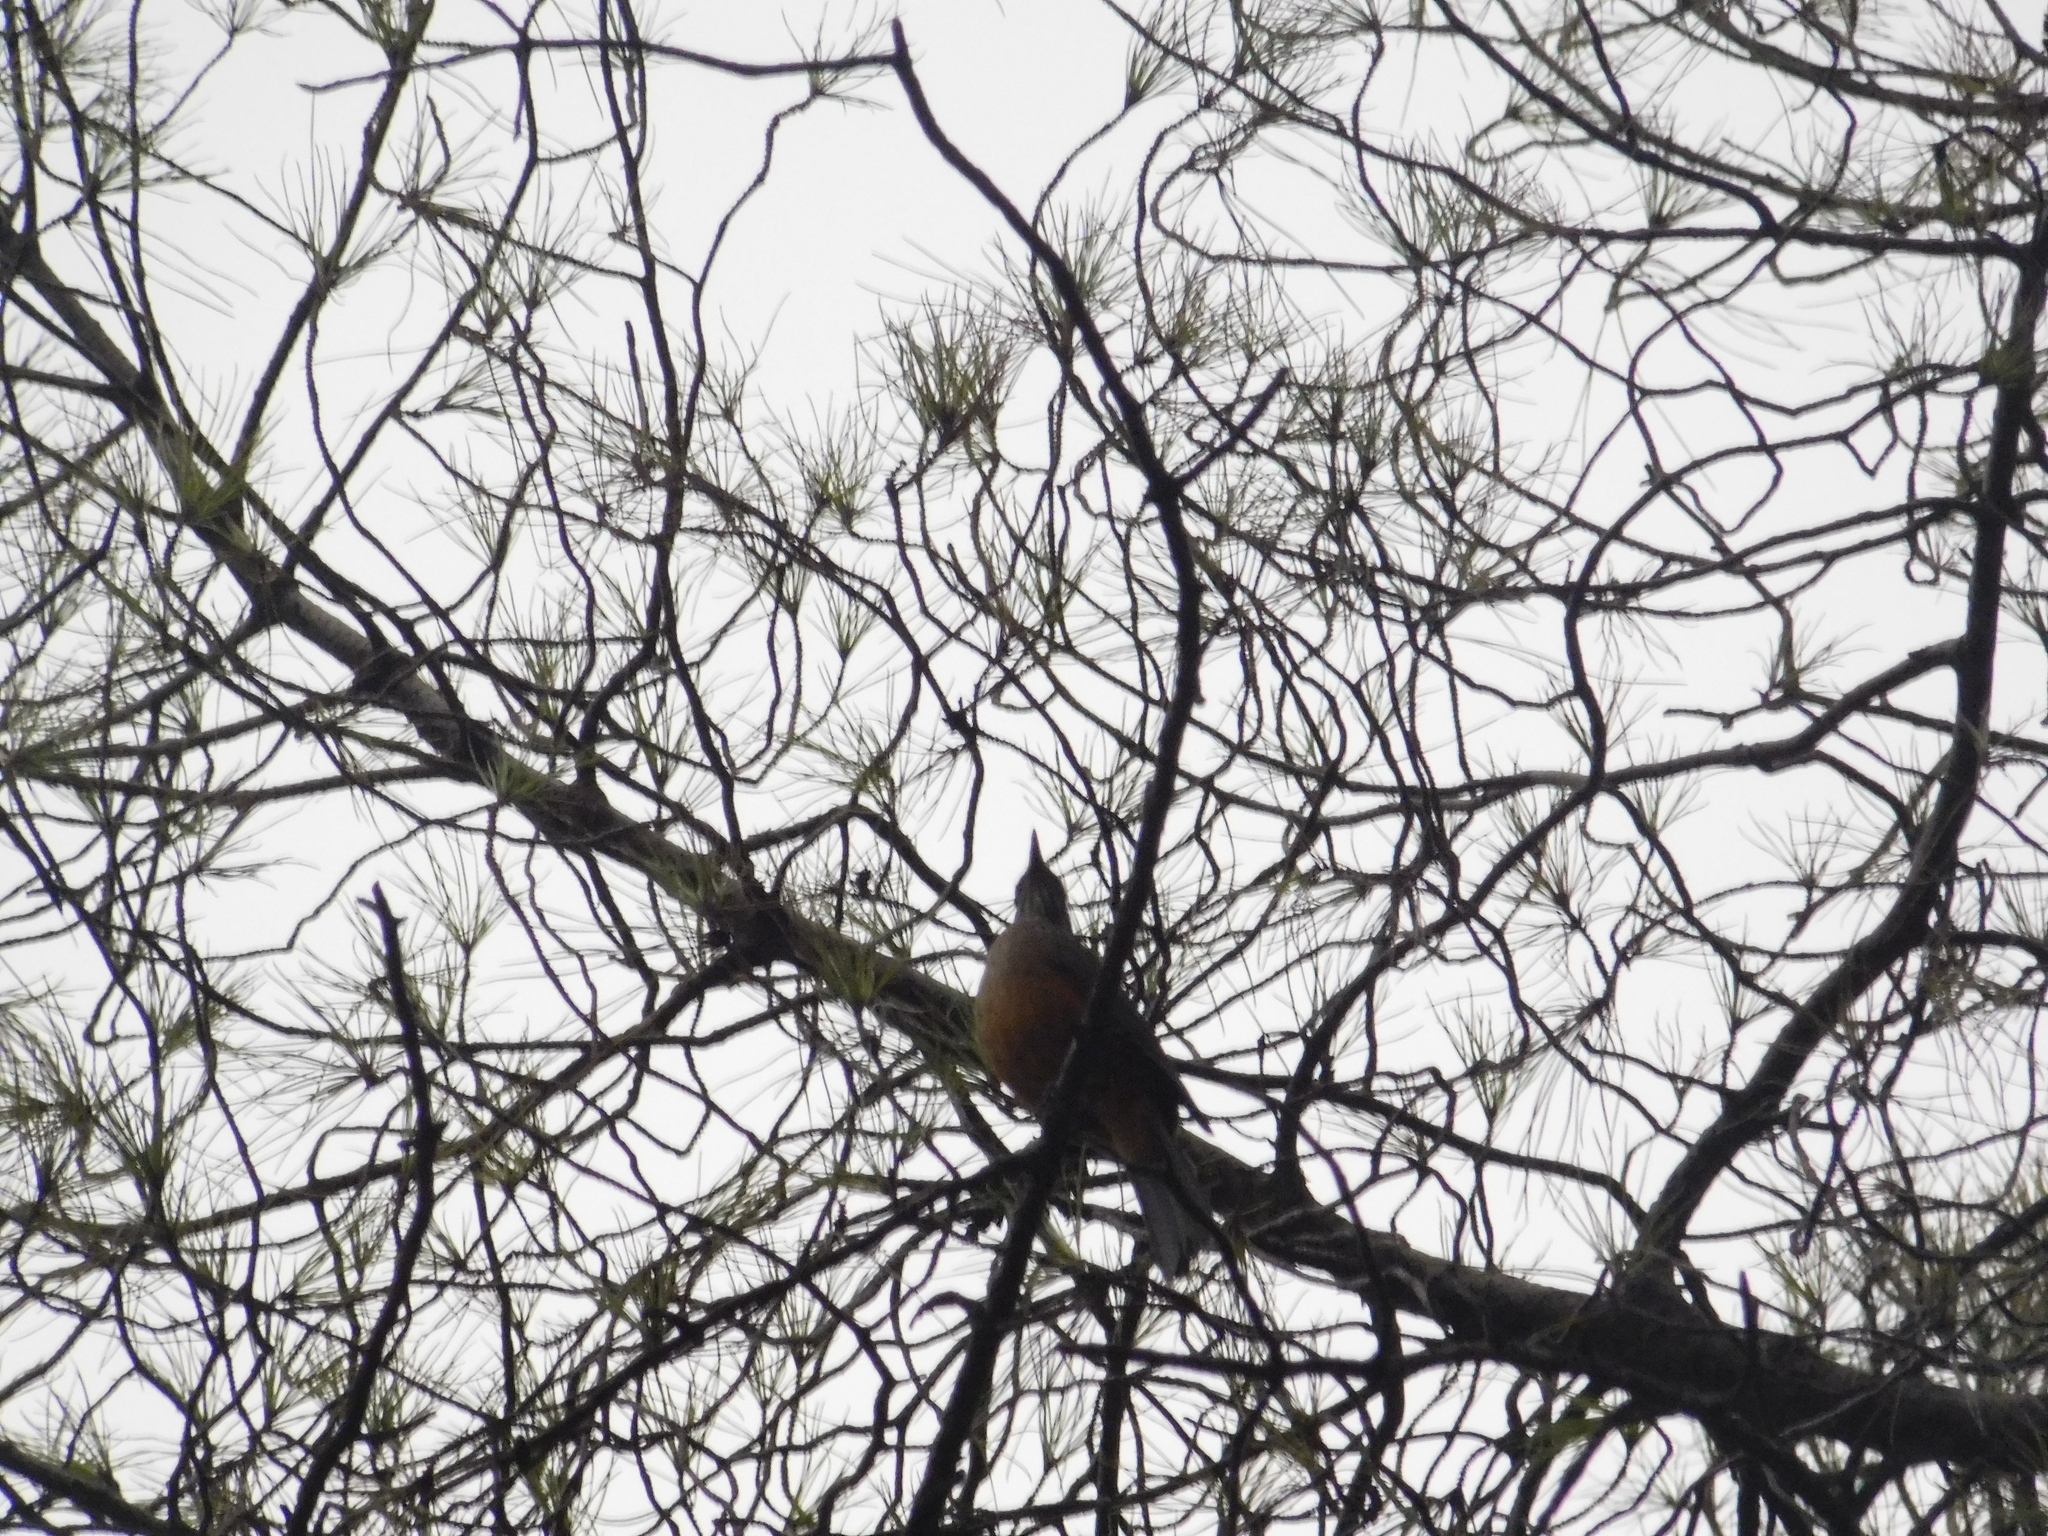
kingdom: Animalia
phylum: Chordata
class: Aves
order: Passeriformes
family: Turdidae
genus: Turdus
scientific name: Turdus rufiventris
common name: Rufous-bellied thrush
